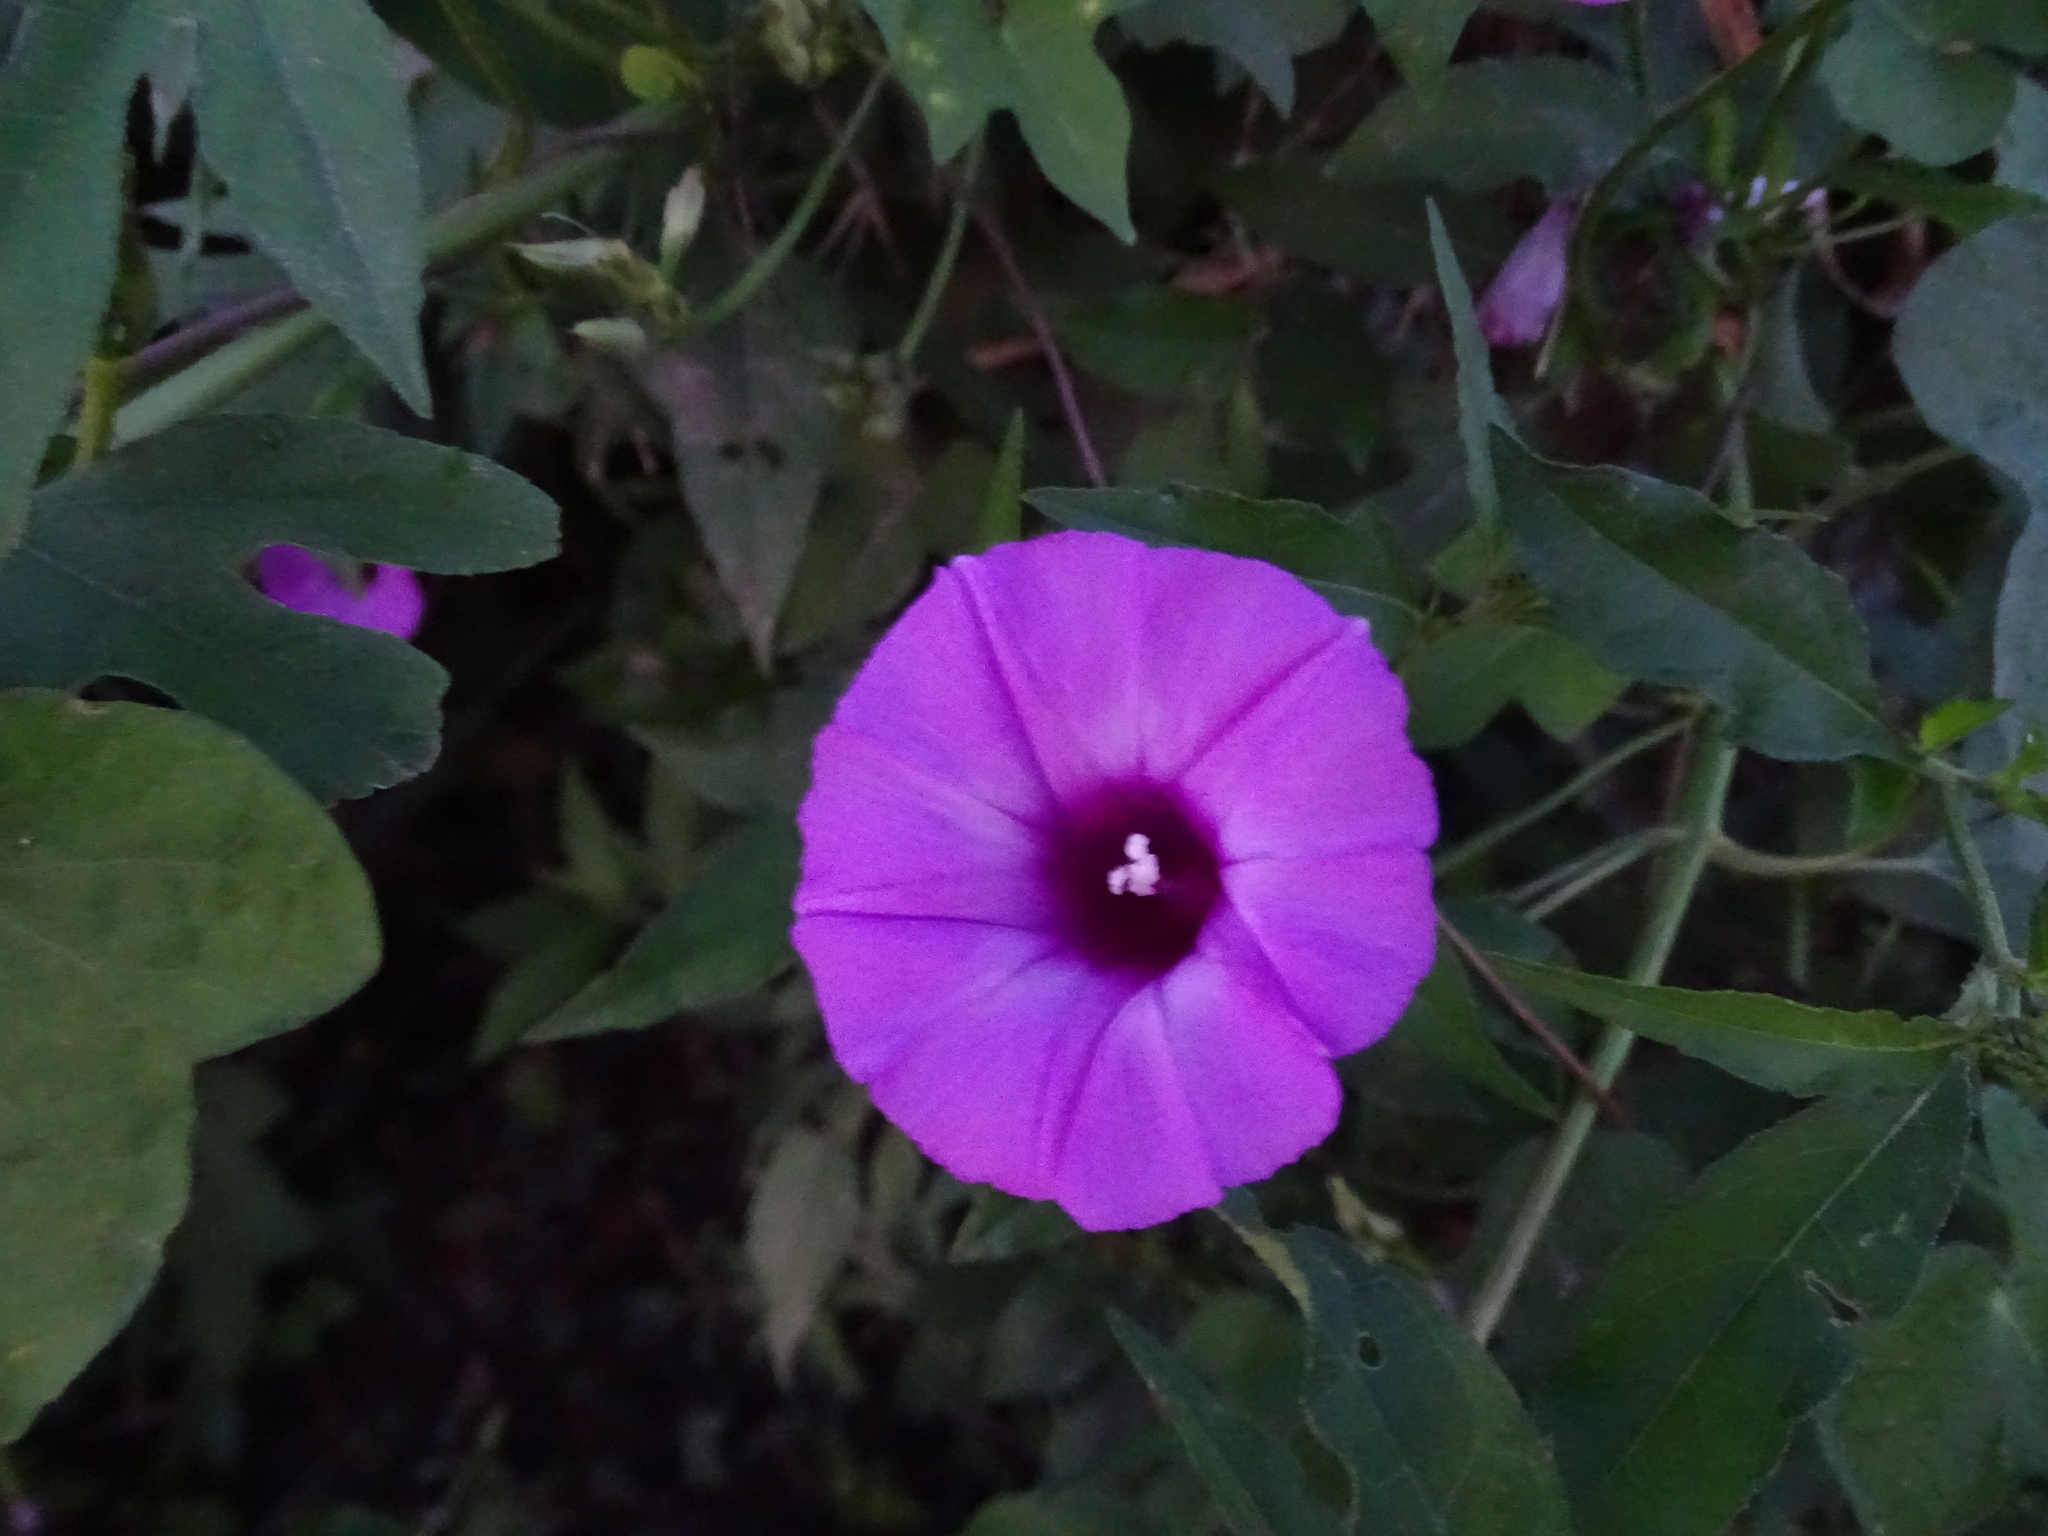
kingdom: Plantae
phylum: Tracheophyta
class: Magnoliopsida
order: Solanales
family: Convolvulaceae
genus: Ipomoea
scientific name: Ipomoea cordatotriloba
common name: Cotton morning glory
